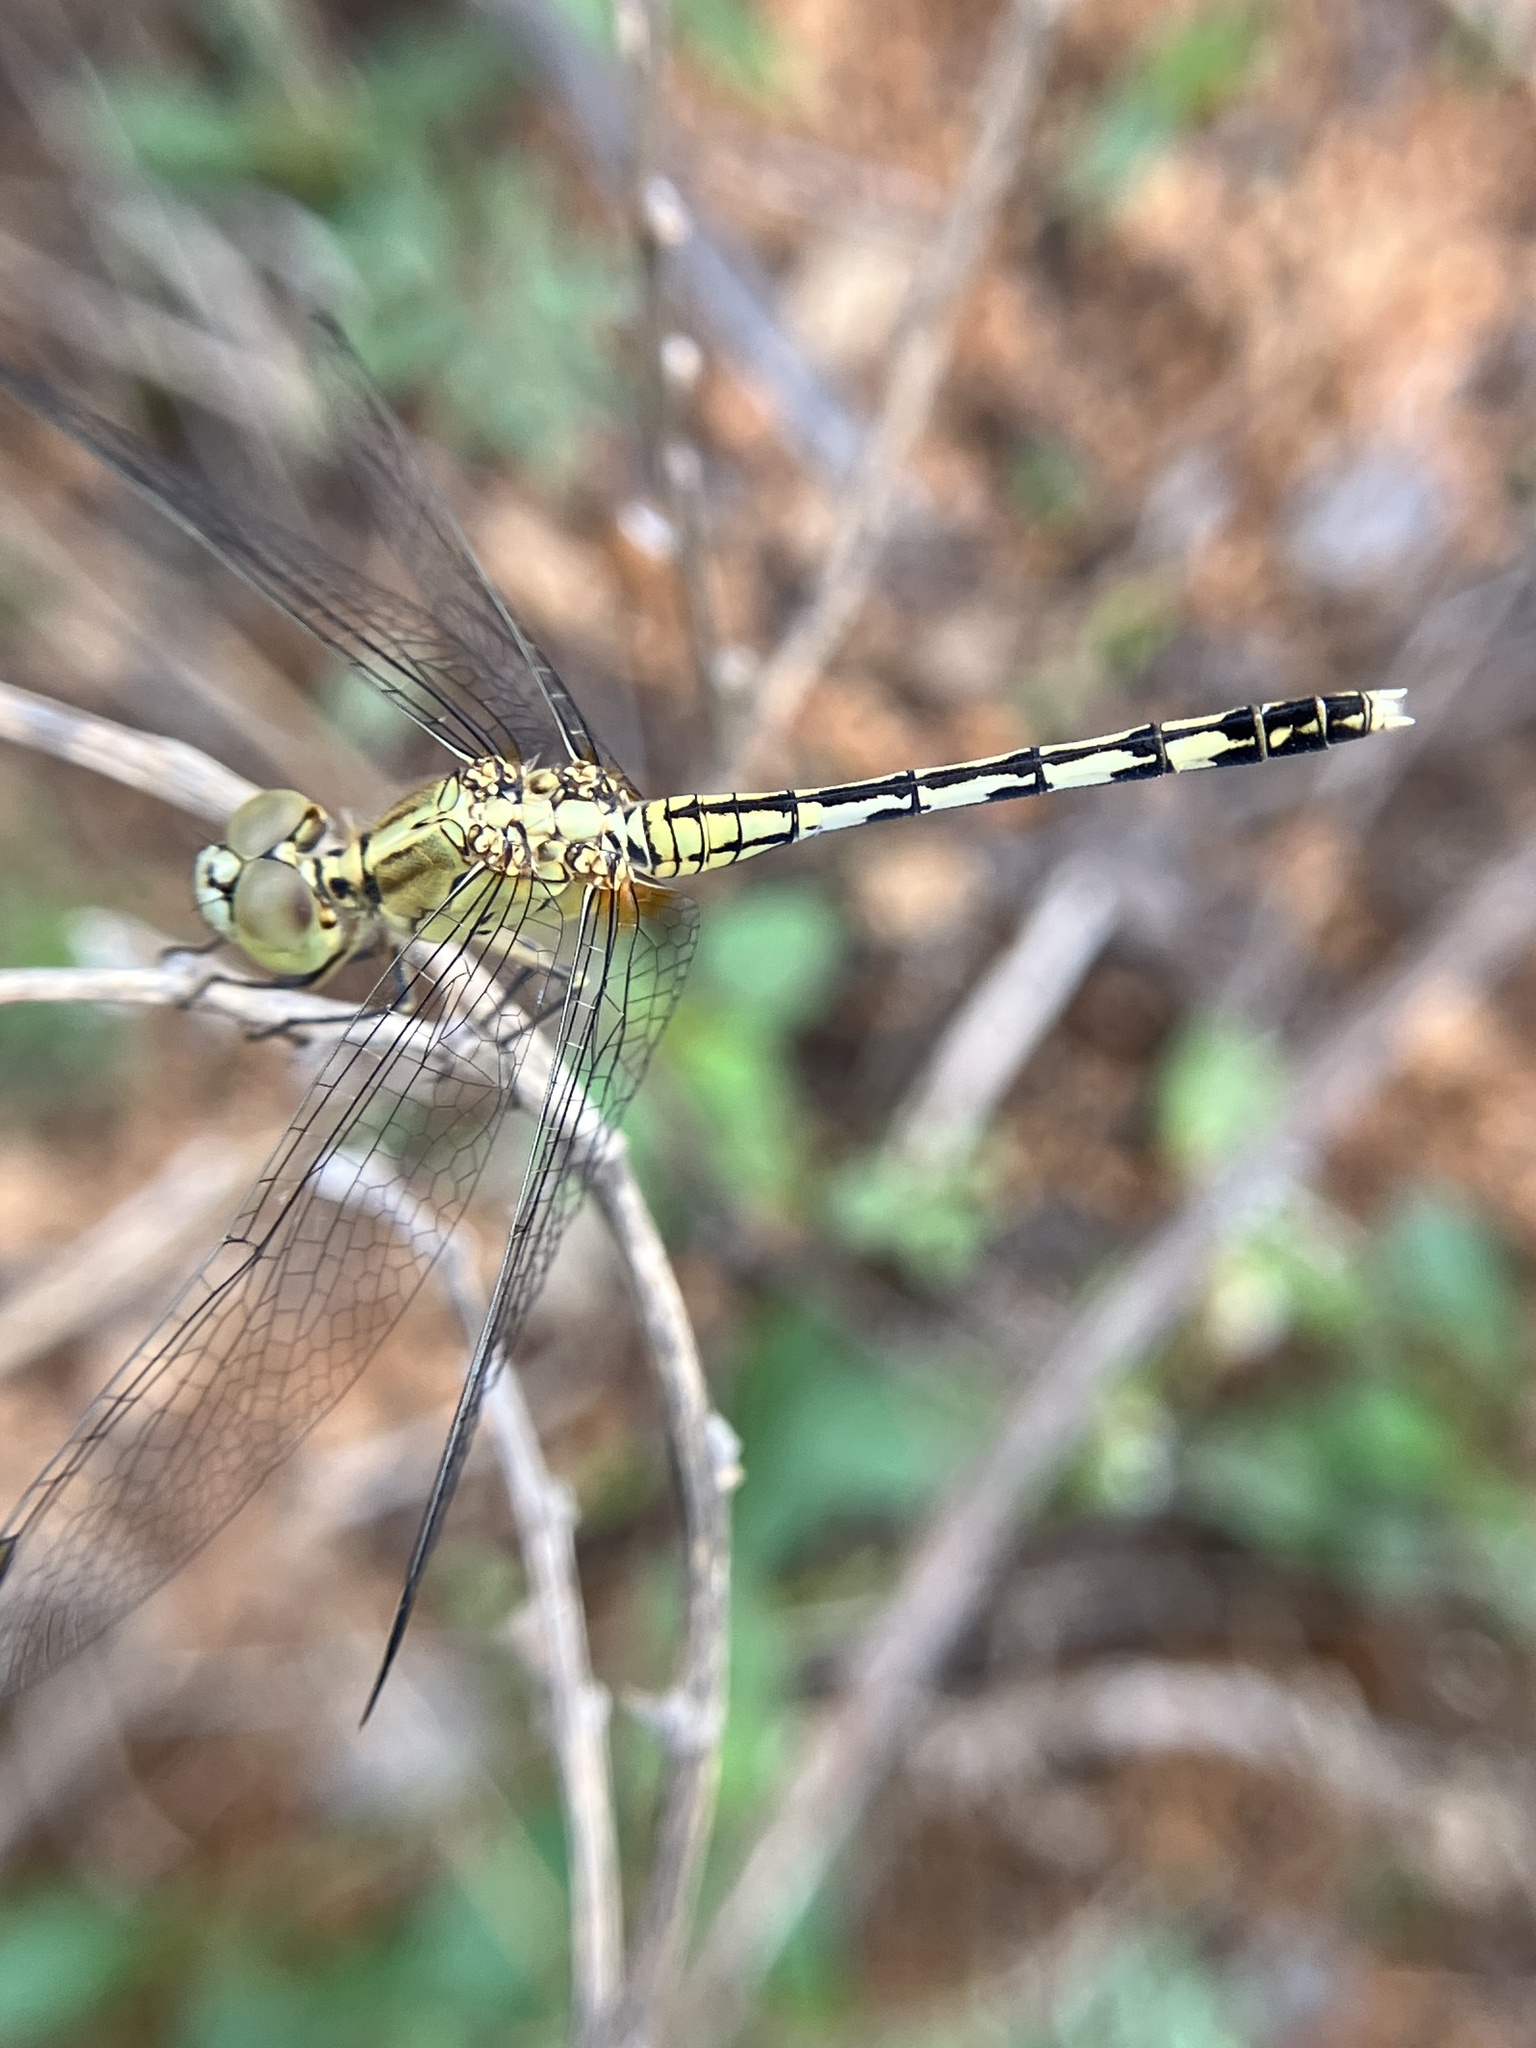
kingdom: Animalia
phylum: Arthropoda
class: Insecta
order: Odonata
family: Libellulidae
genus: Diplacodes
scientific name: Diplacodes trivialis
